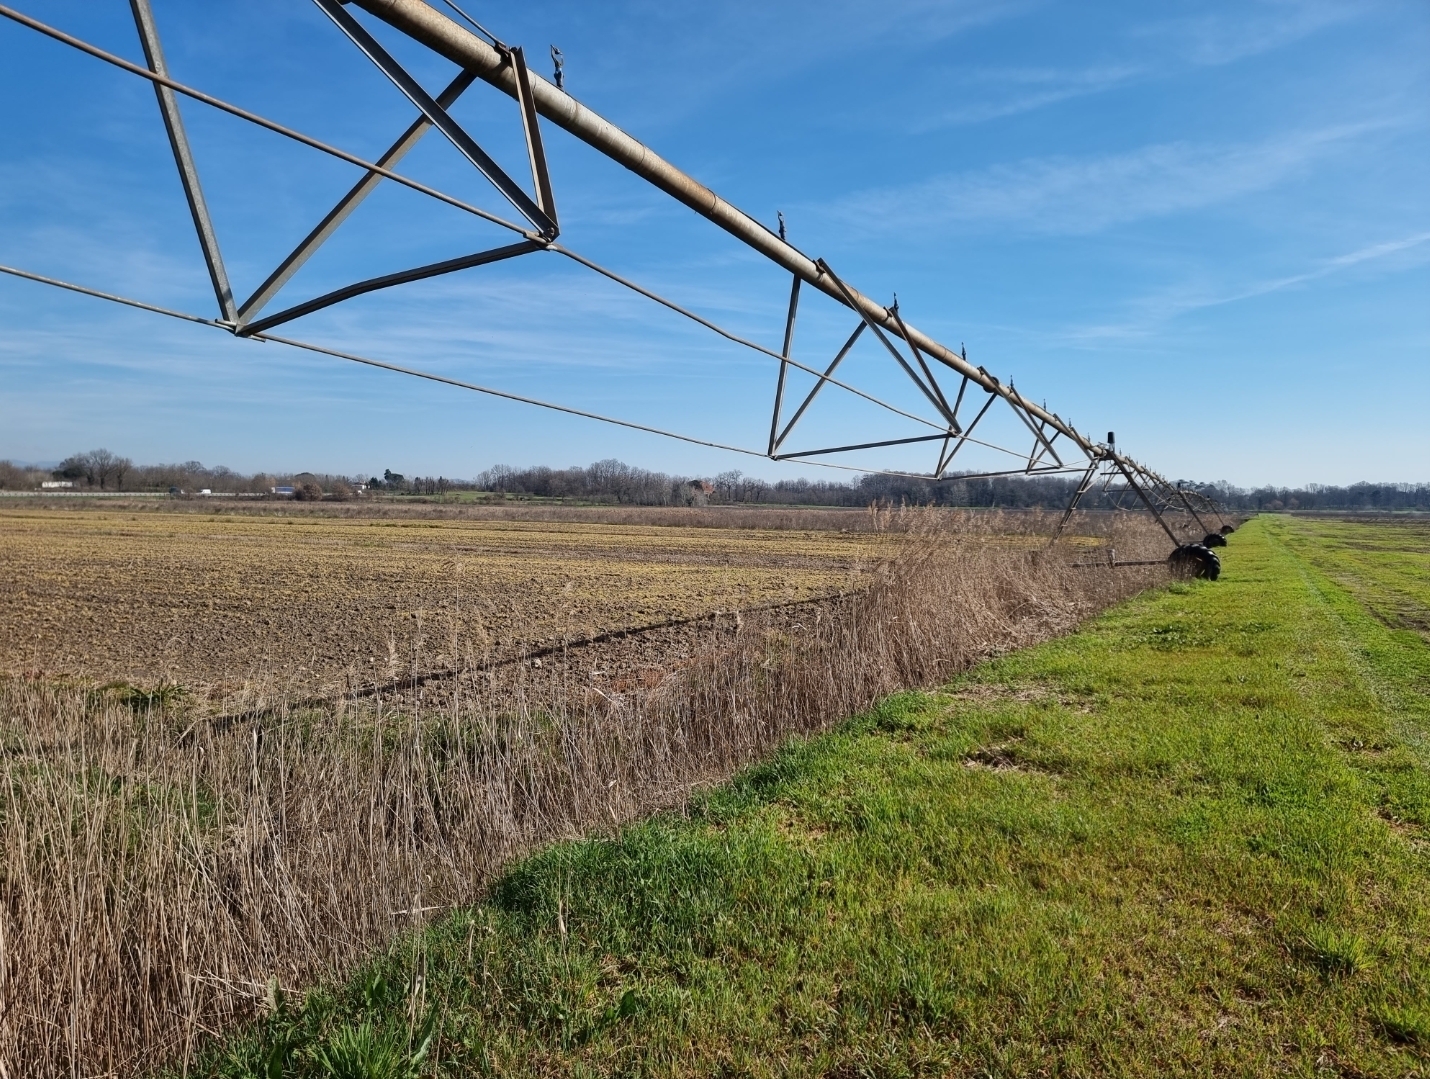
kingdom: Animalia
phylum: Chordata
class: Aves
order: Passeriformes
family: Cettiidae
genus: Cettia
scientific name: Cettia cetti
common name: Cetti's warbler
